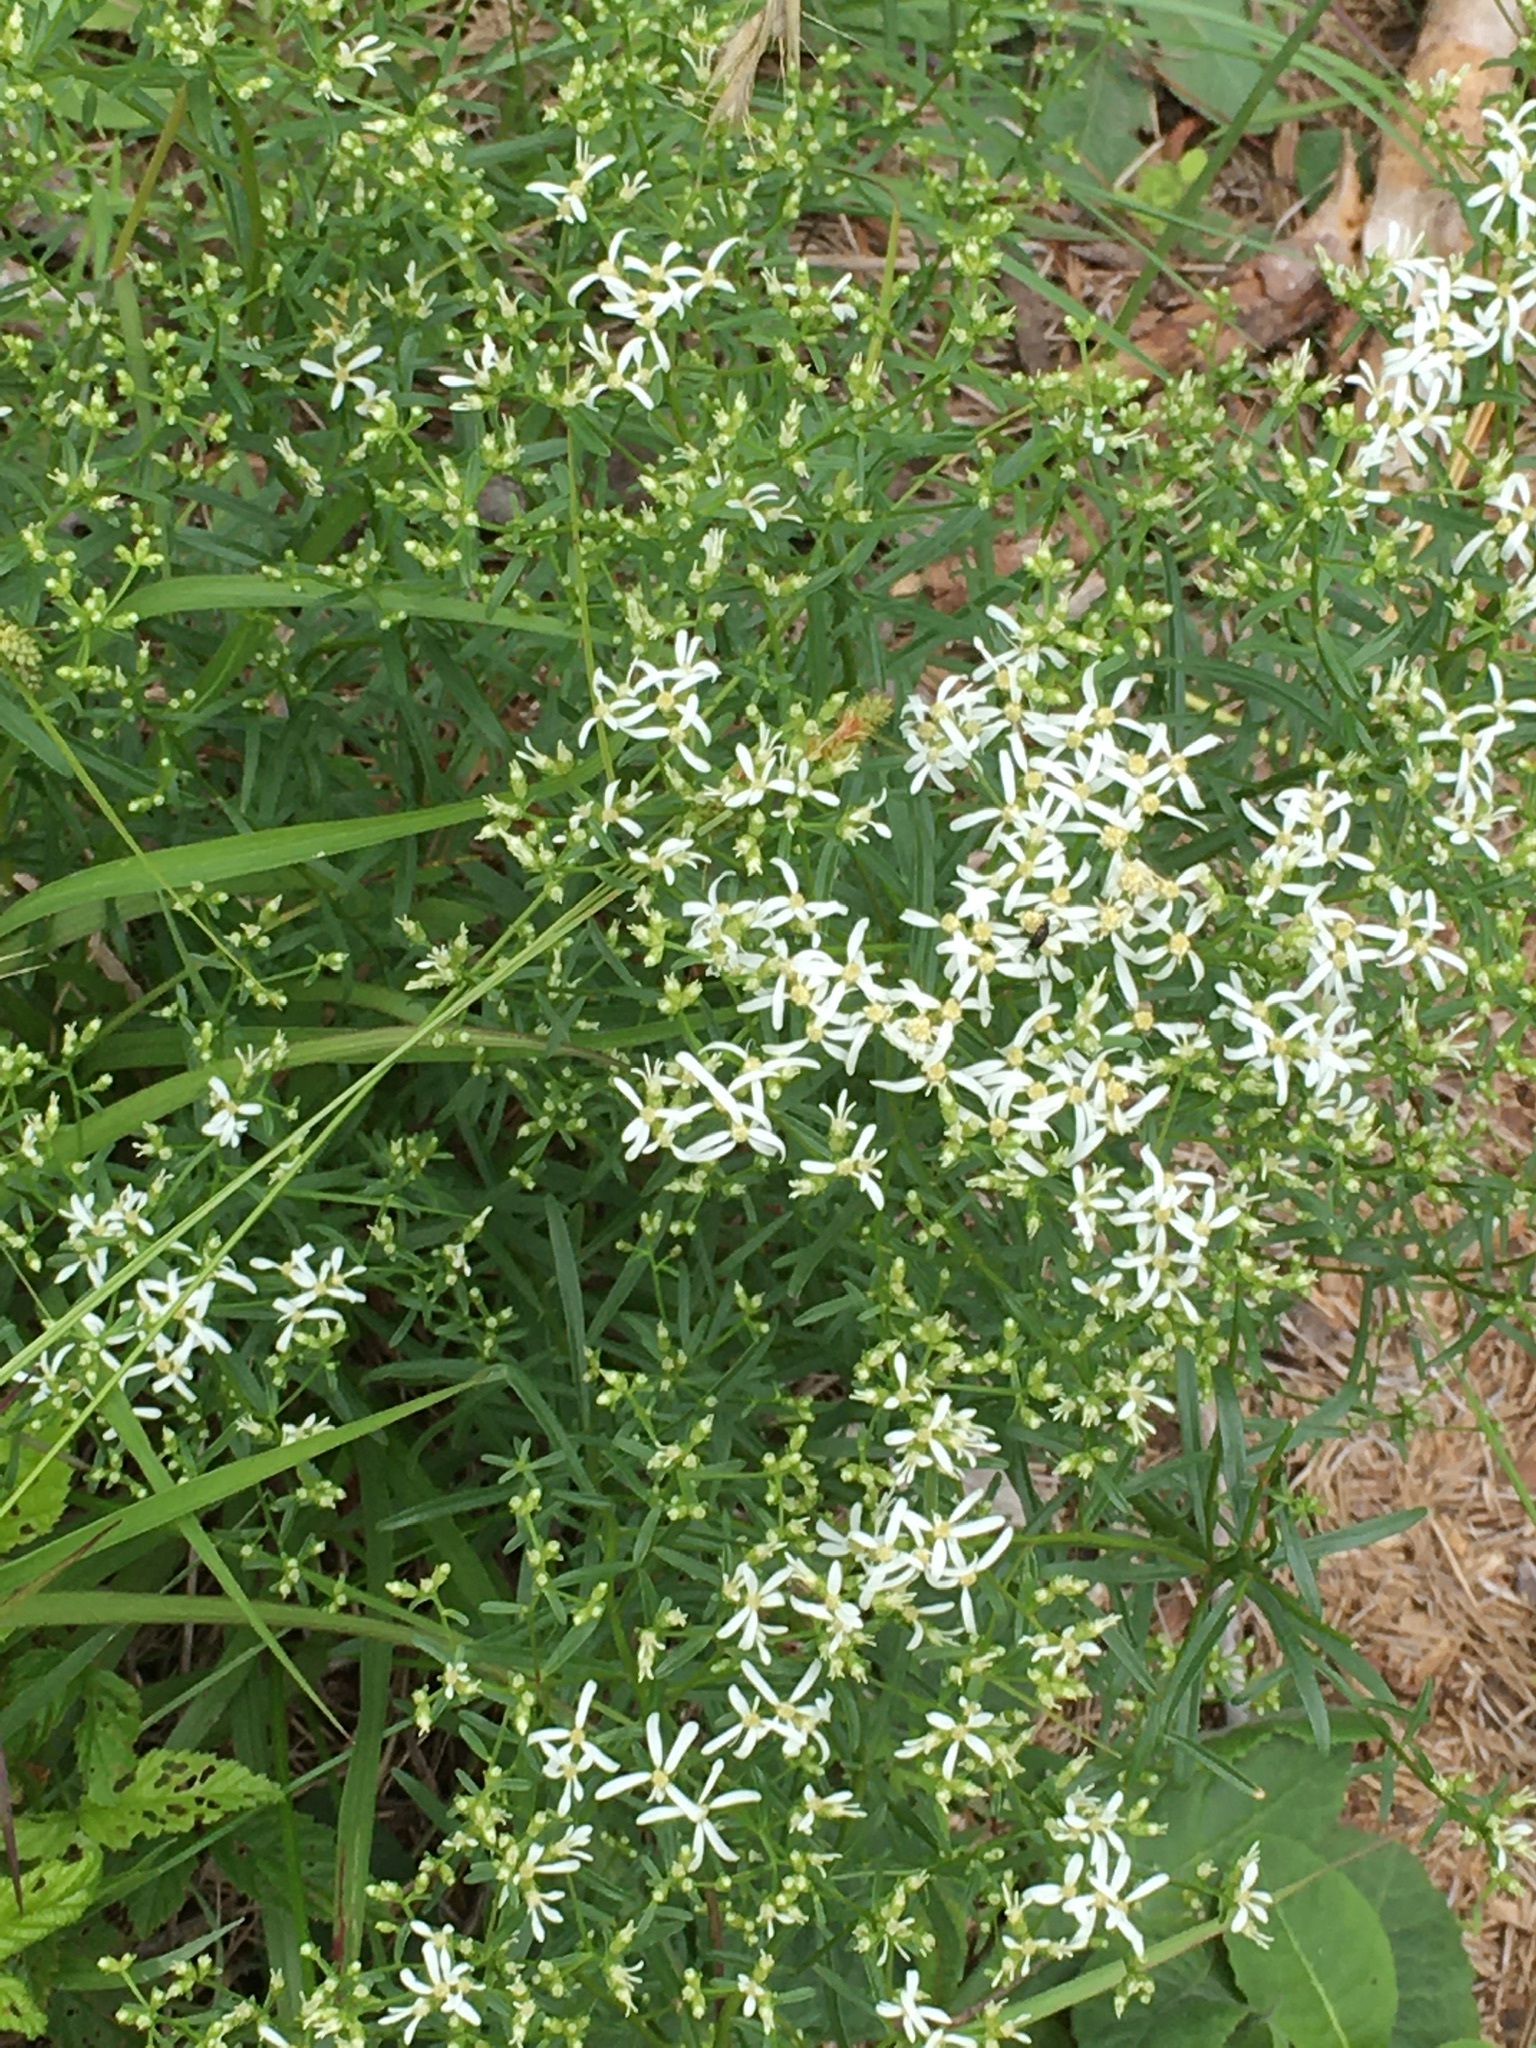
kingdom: Plantae
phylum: Tracheophyta
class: Magnoliopsida
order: Asterales
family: Asteraceae
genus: Sericocarpus
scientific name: Sericocarpus linifolius
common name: Narrow-leaf aster
